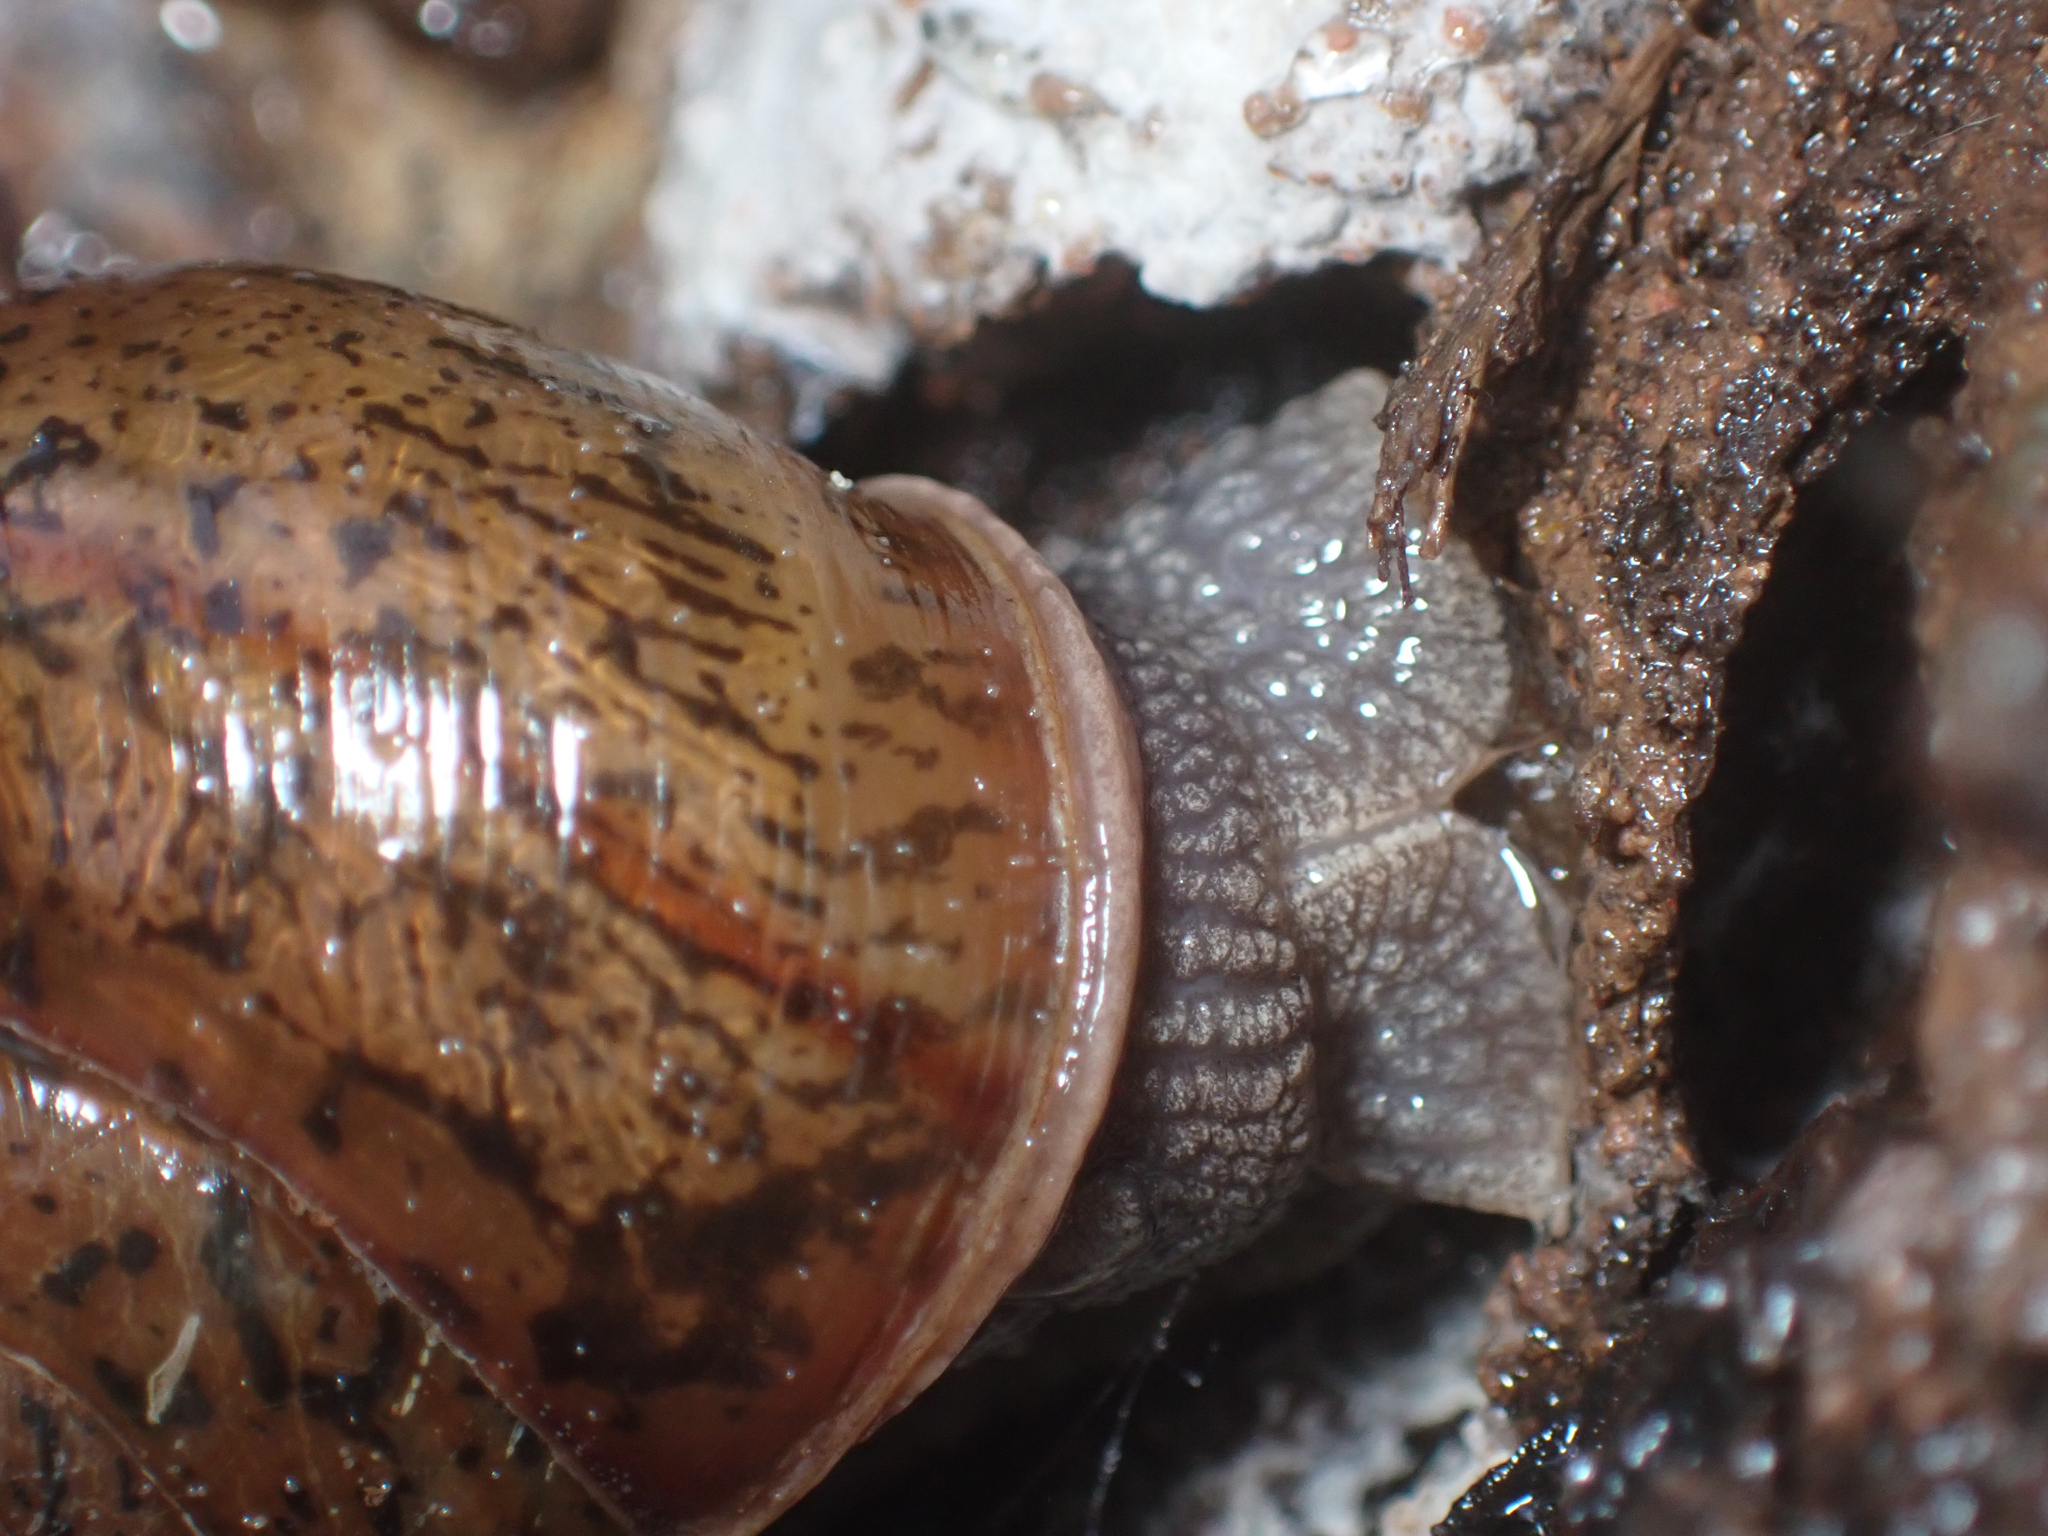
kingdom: Animalia
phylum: Mollusca
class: Gastropoda
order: Stylommatophora
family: Xanthonychidae
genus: Helminthoglypta
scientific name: Helminthoglypta hertleini
